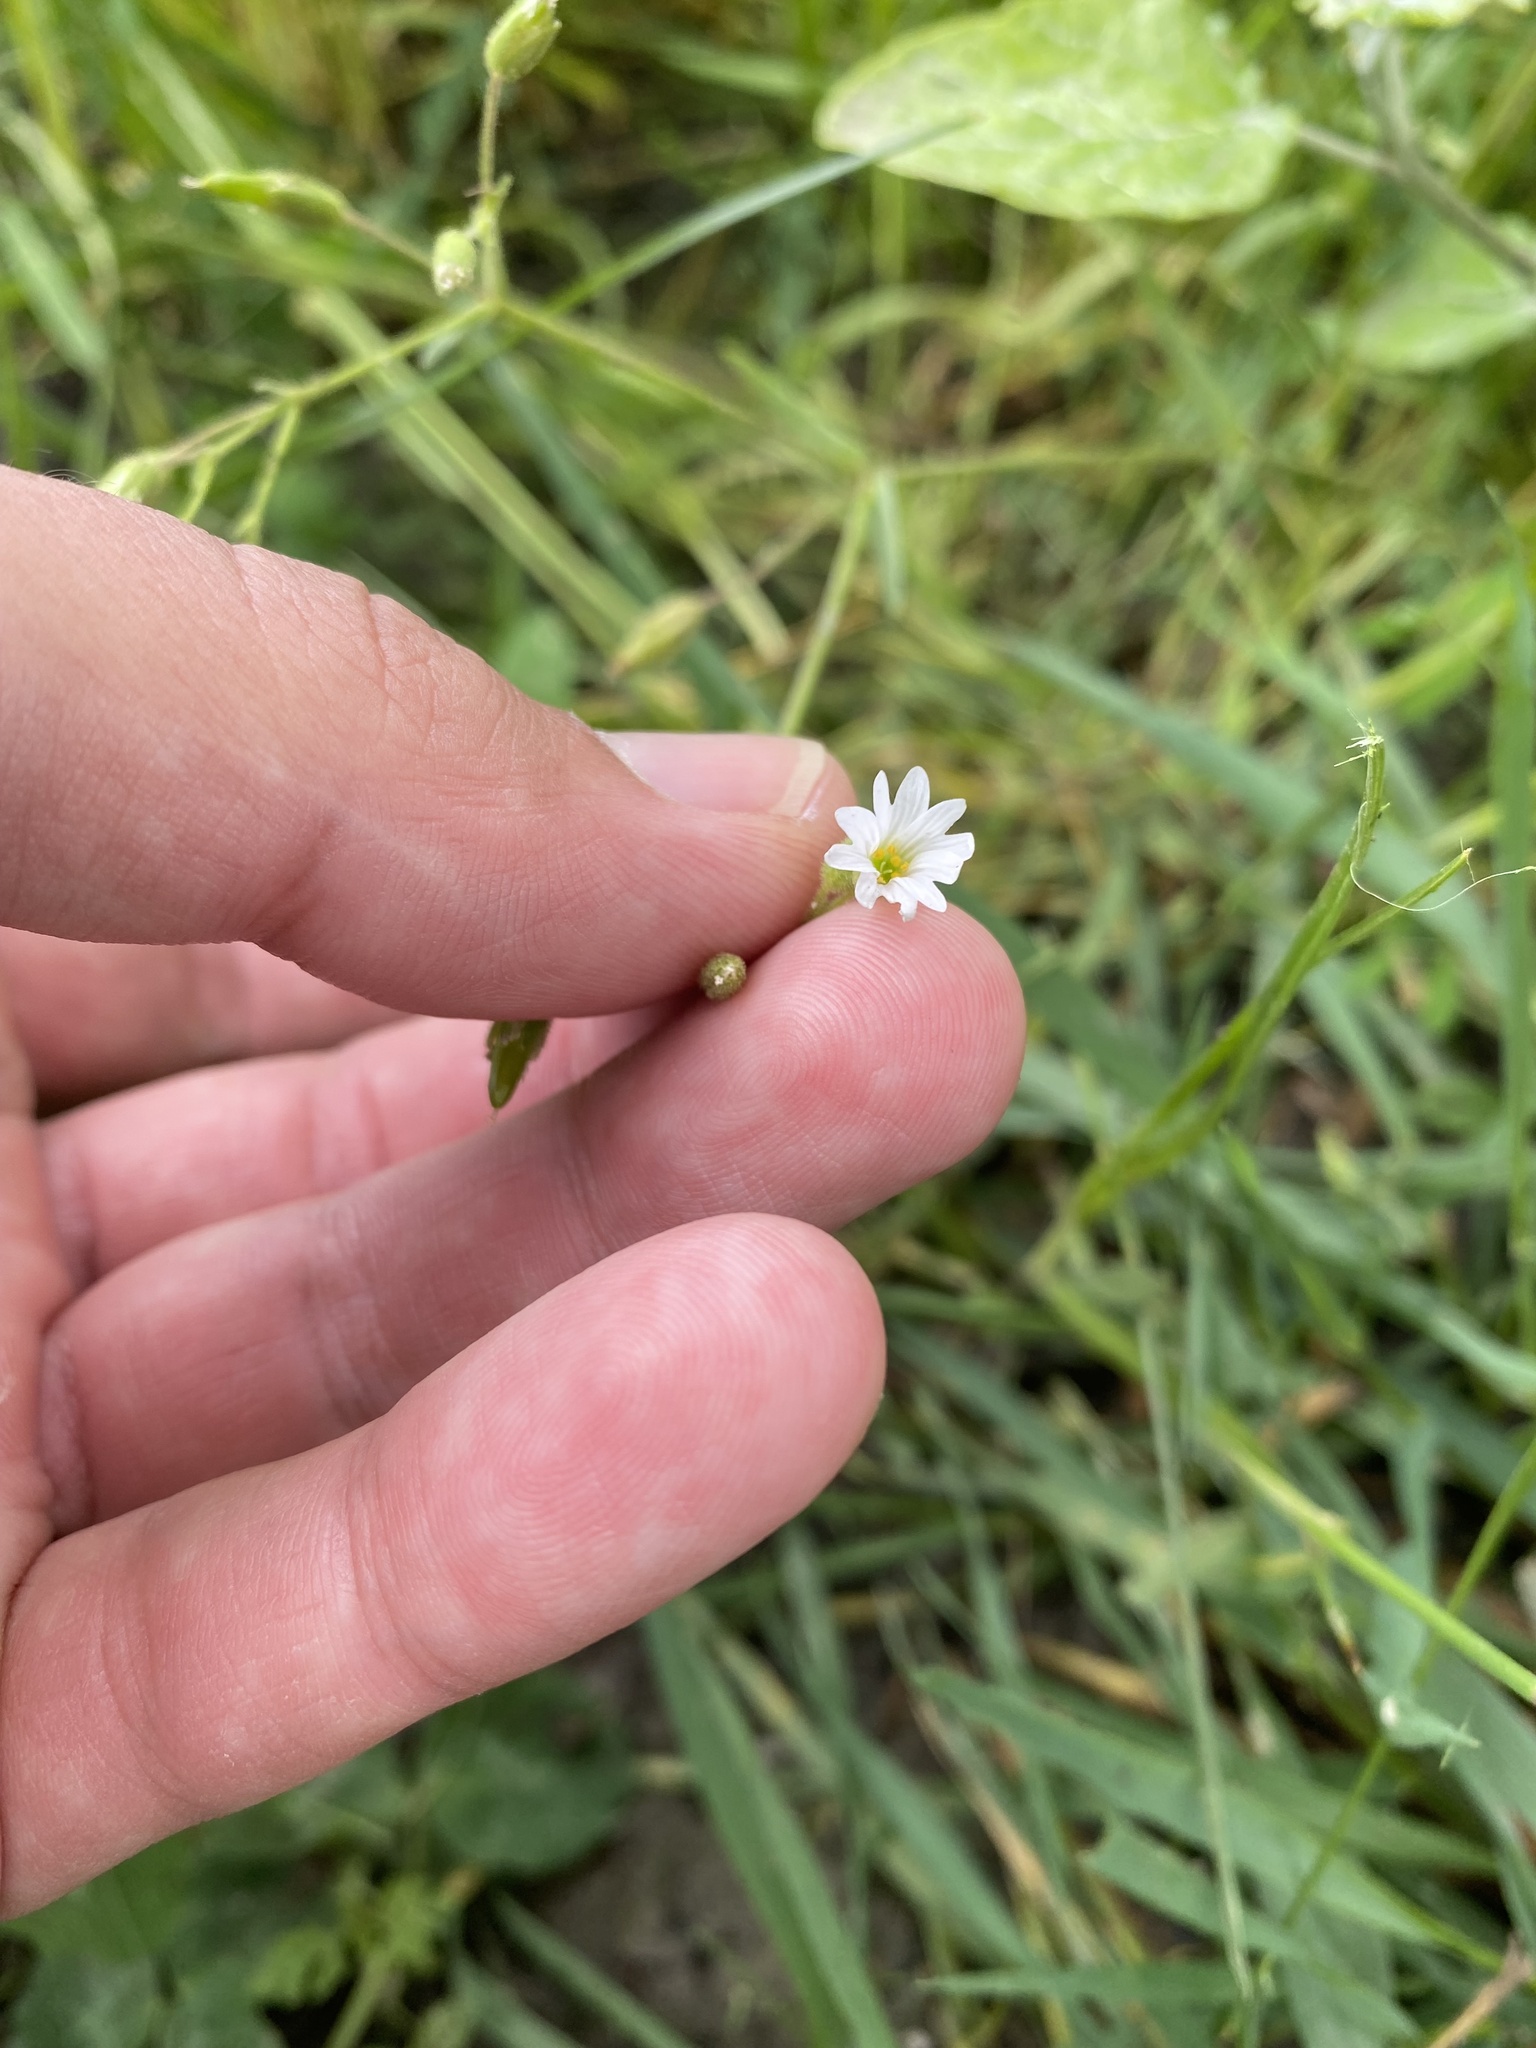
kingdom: Plantae
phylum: Tracheophyta
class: Magnoliopsida
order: Caryophyllales
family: Caryophyllaceae
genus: Dichodon
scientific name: Dichodon viscidum
